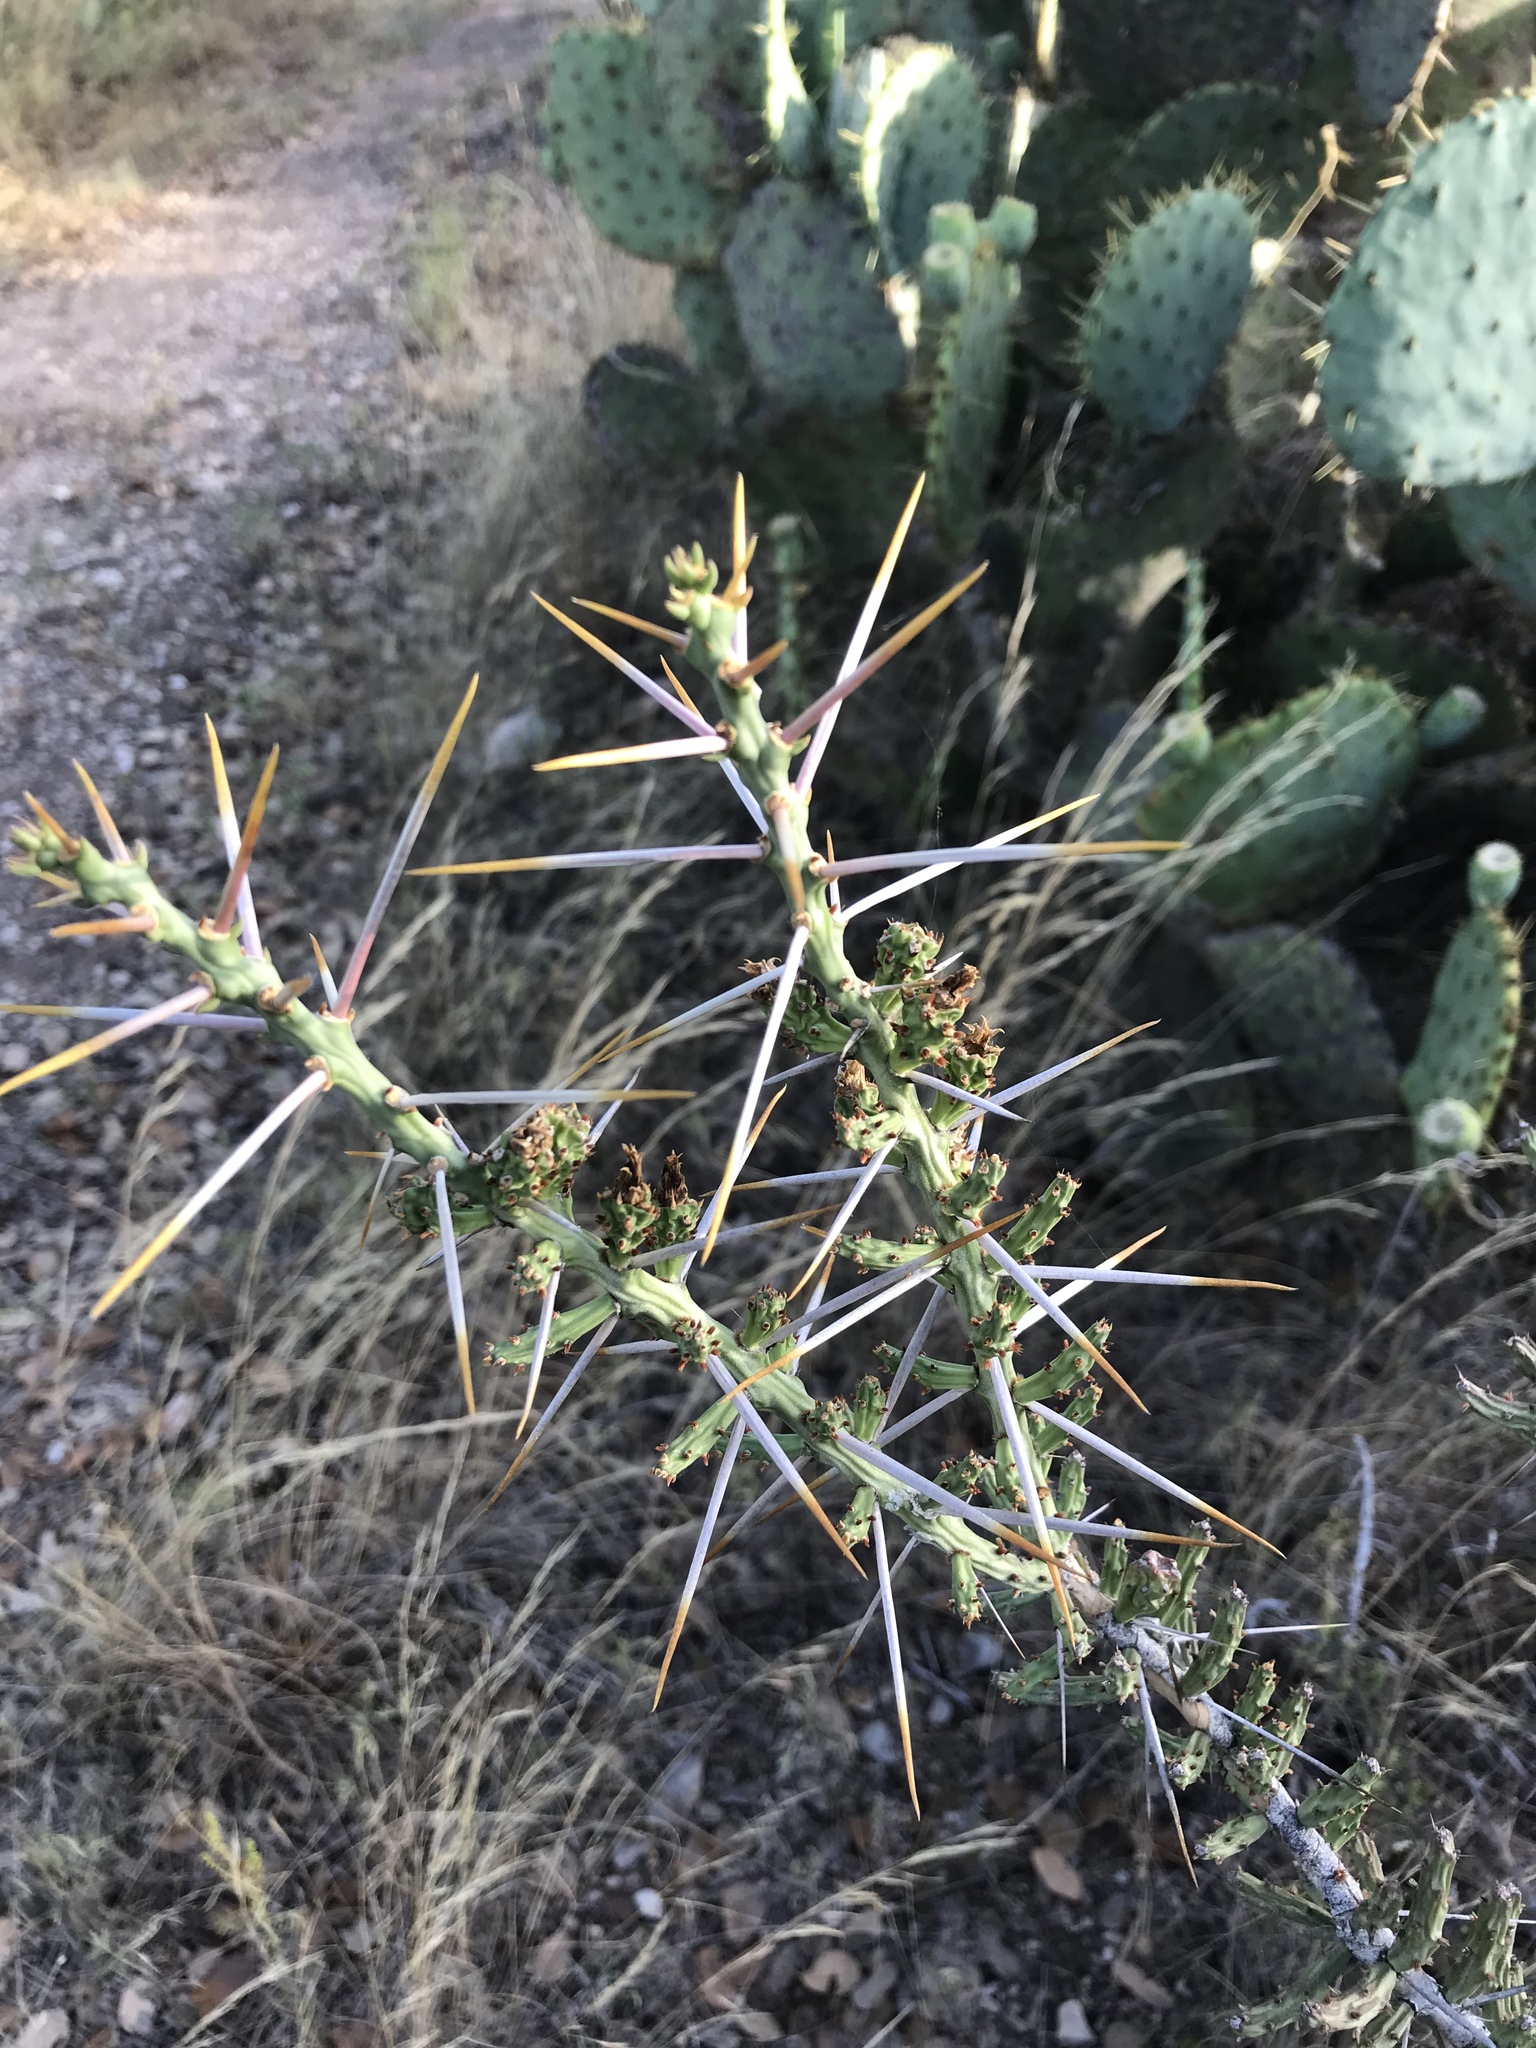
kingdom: Plantae
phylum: Tracheophyta
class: Magnoliopsida
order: Caryophyllales
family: Cactaceae
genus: Cylindropuntia
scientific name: Cylindropuntia leptocaulis
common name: Christmas cactus
